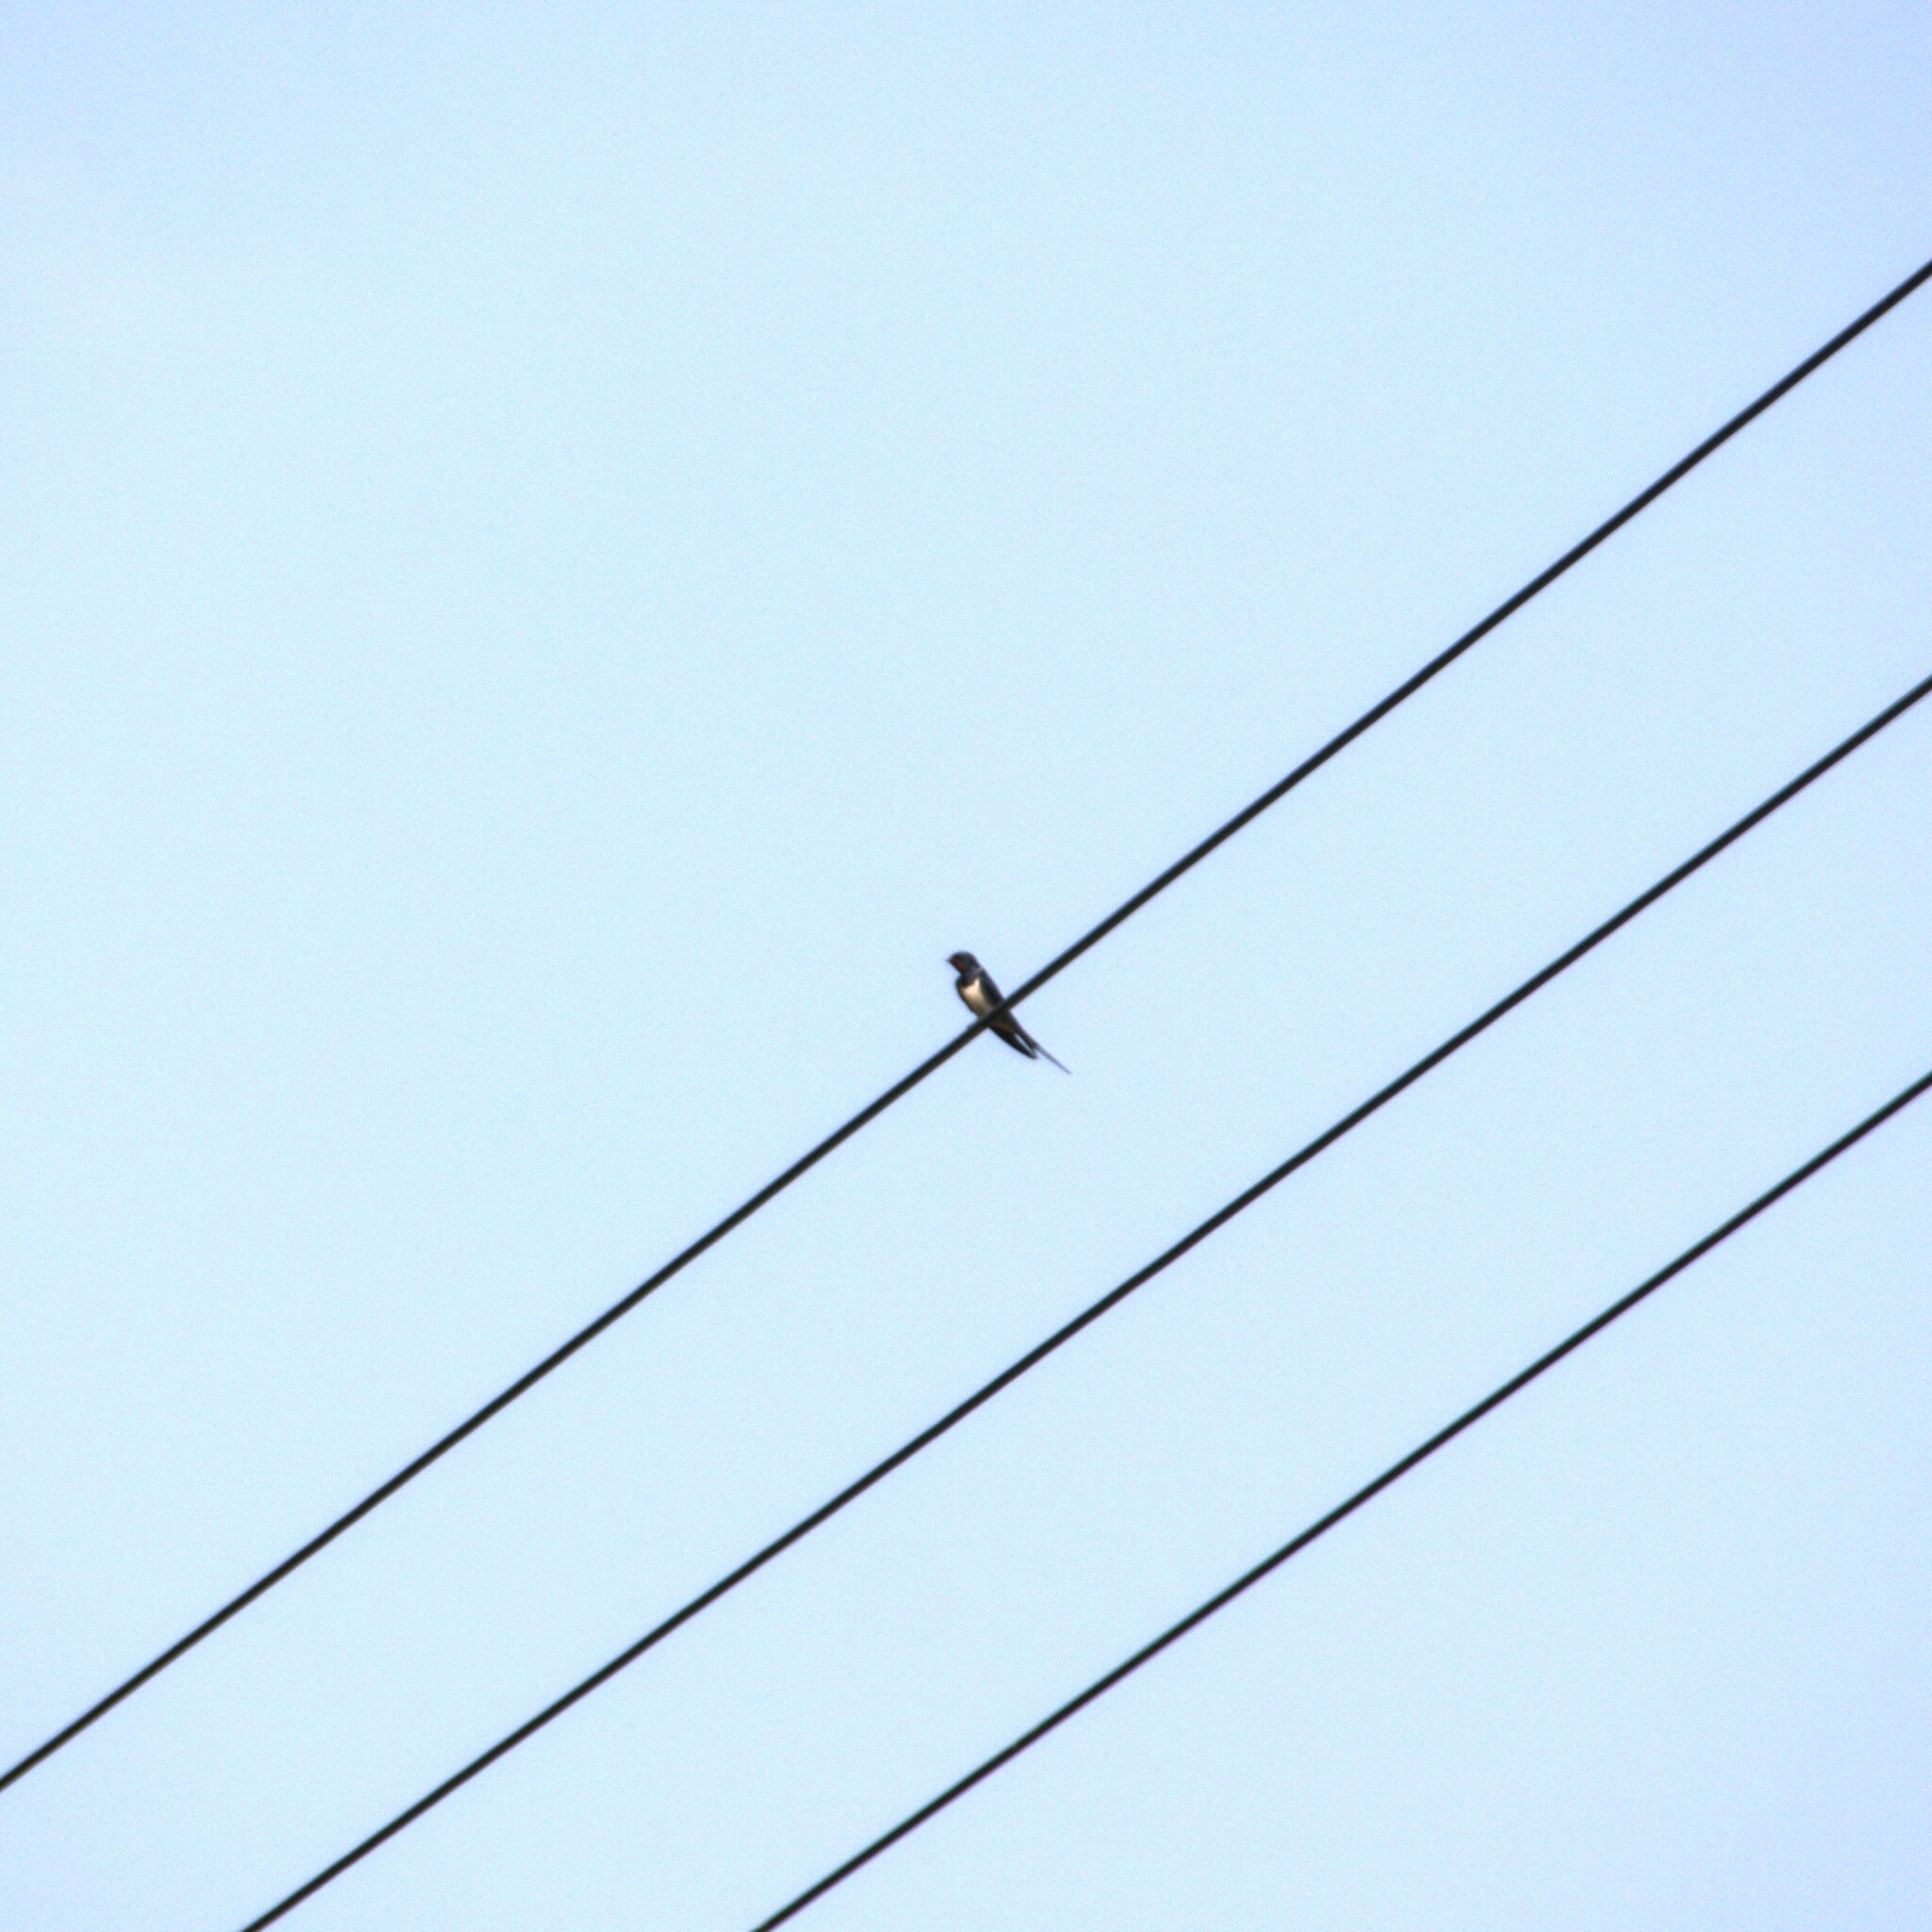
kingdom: Animalia
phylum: Chordata
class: Aves
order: Passeriformes
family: Hirundinidae
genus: Hirundo
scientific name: Hirundo rustica
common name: Barn swallow
